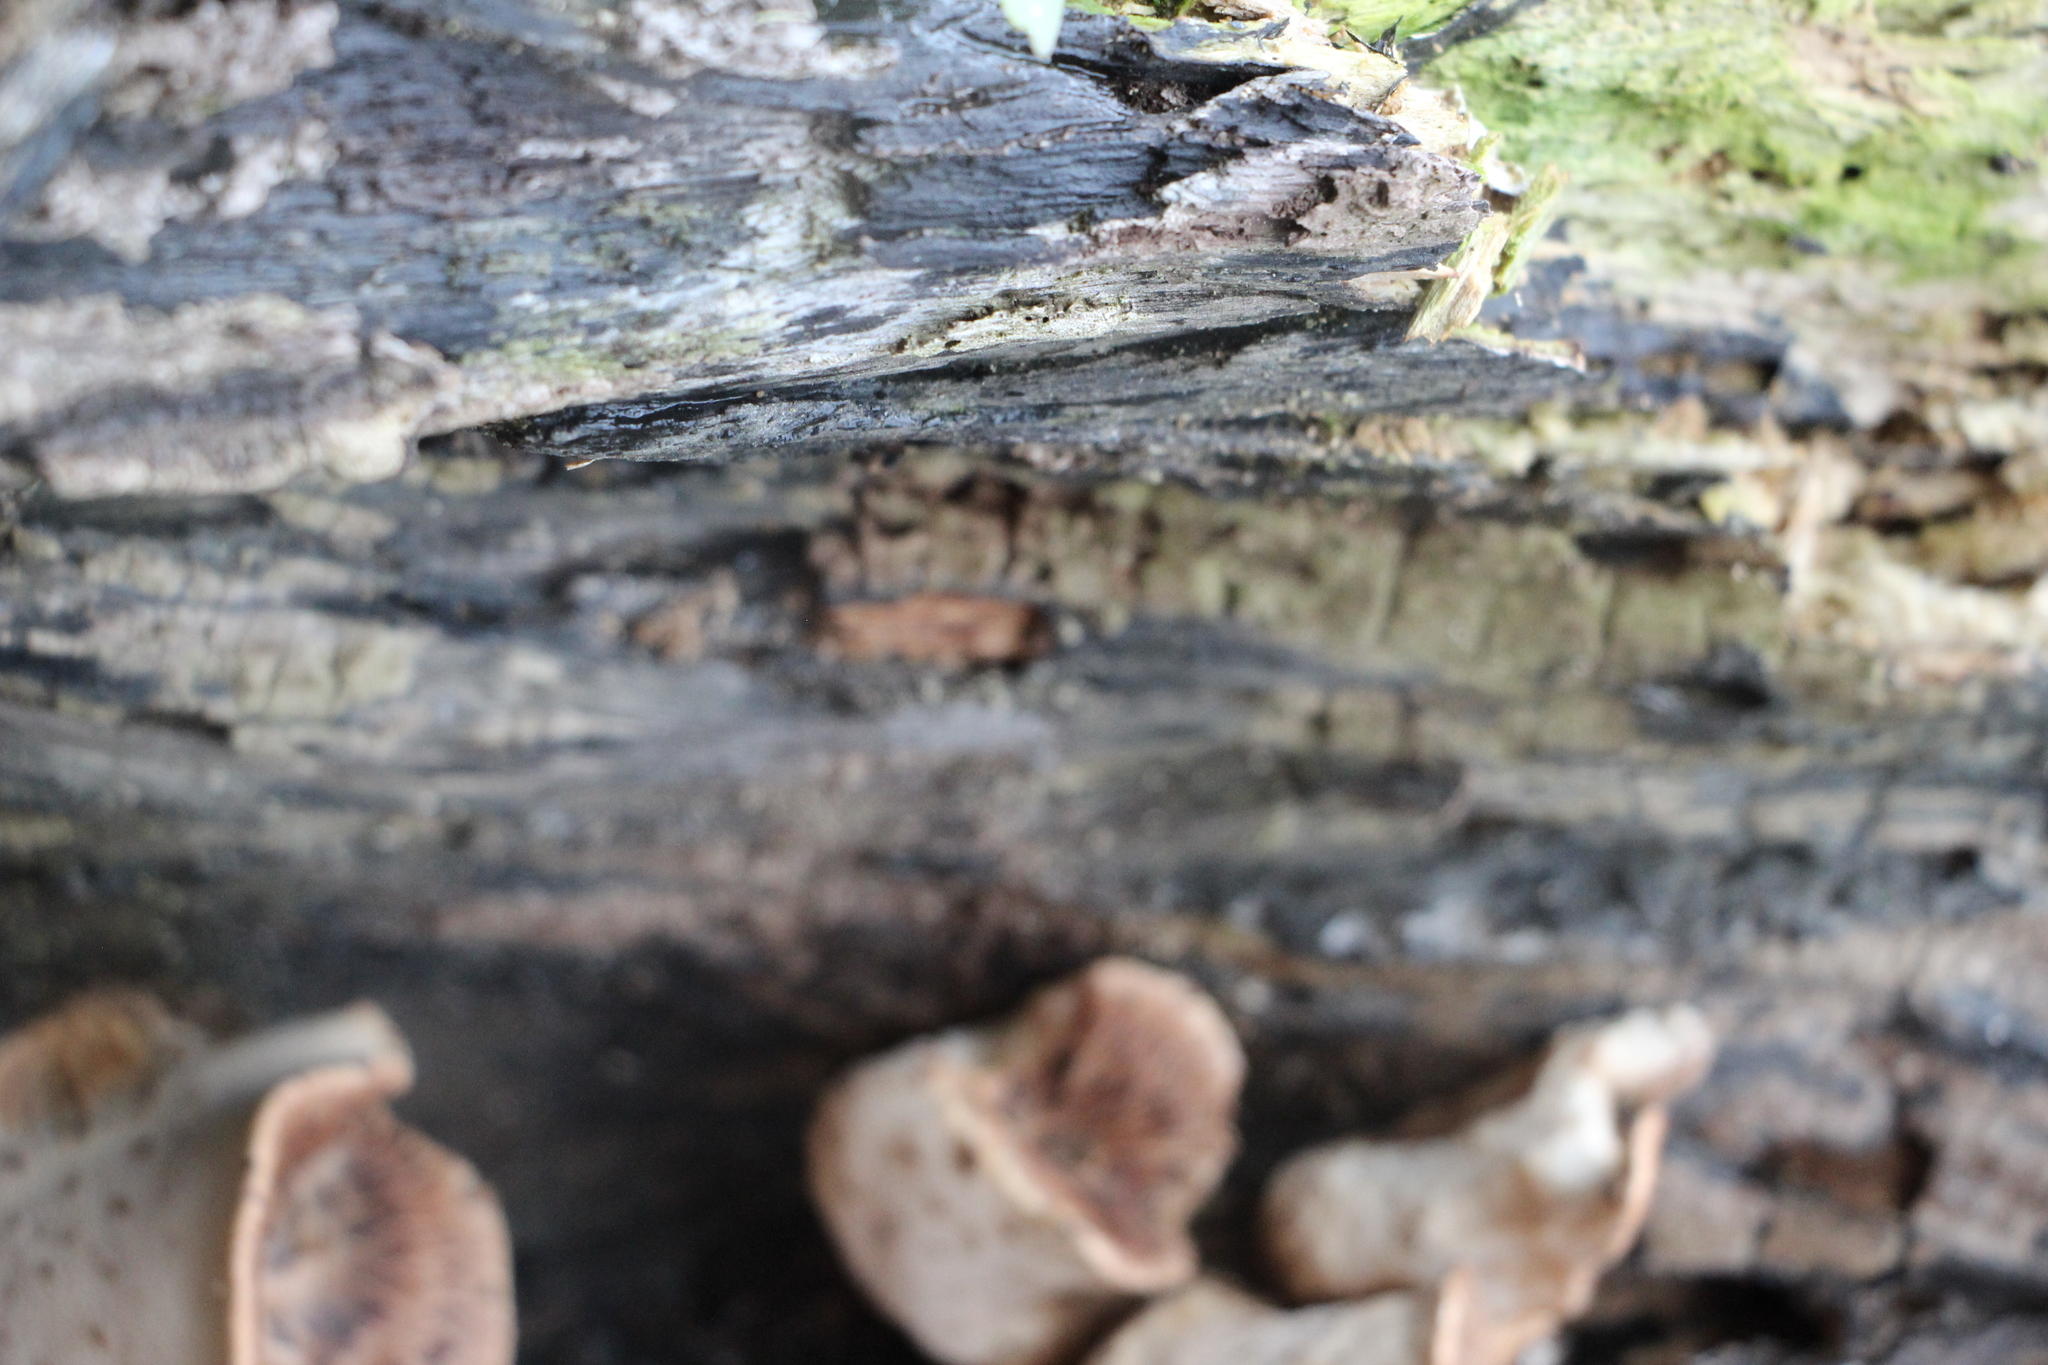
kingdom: Fungi
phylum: Basidiomycota
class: Agaricomycetes
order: Polyporales
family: Polyporaceae
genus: Cerioporus
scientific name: Cerioporus squamosus
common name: Dryad's saddle
